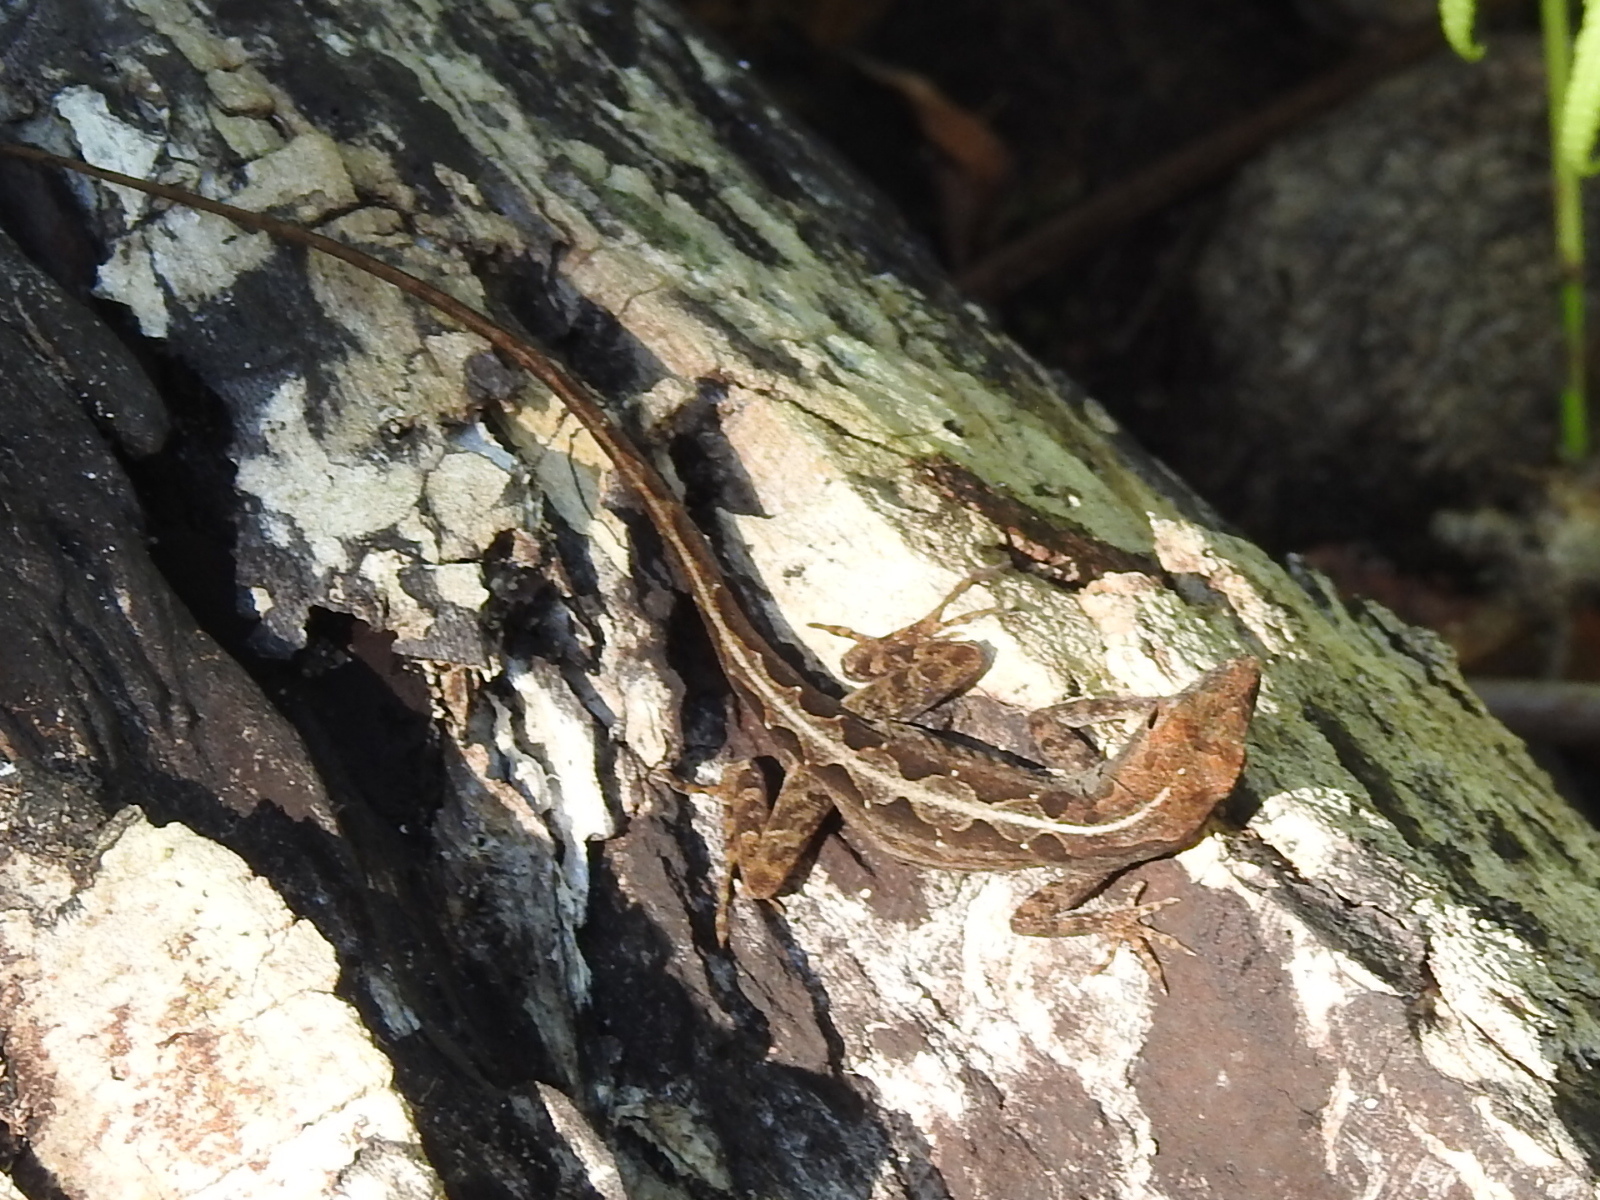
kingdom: Animalia
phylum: Chordata
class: Squamata
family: Dactyloidae
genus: Anolis
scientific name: Anolis sagrei
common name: Brown anole
